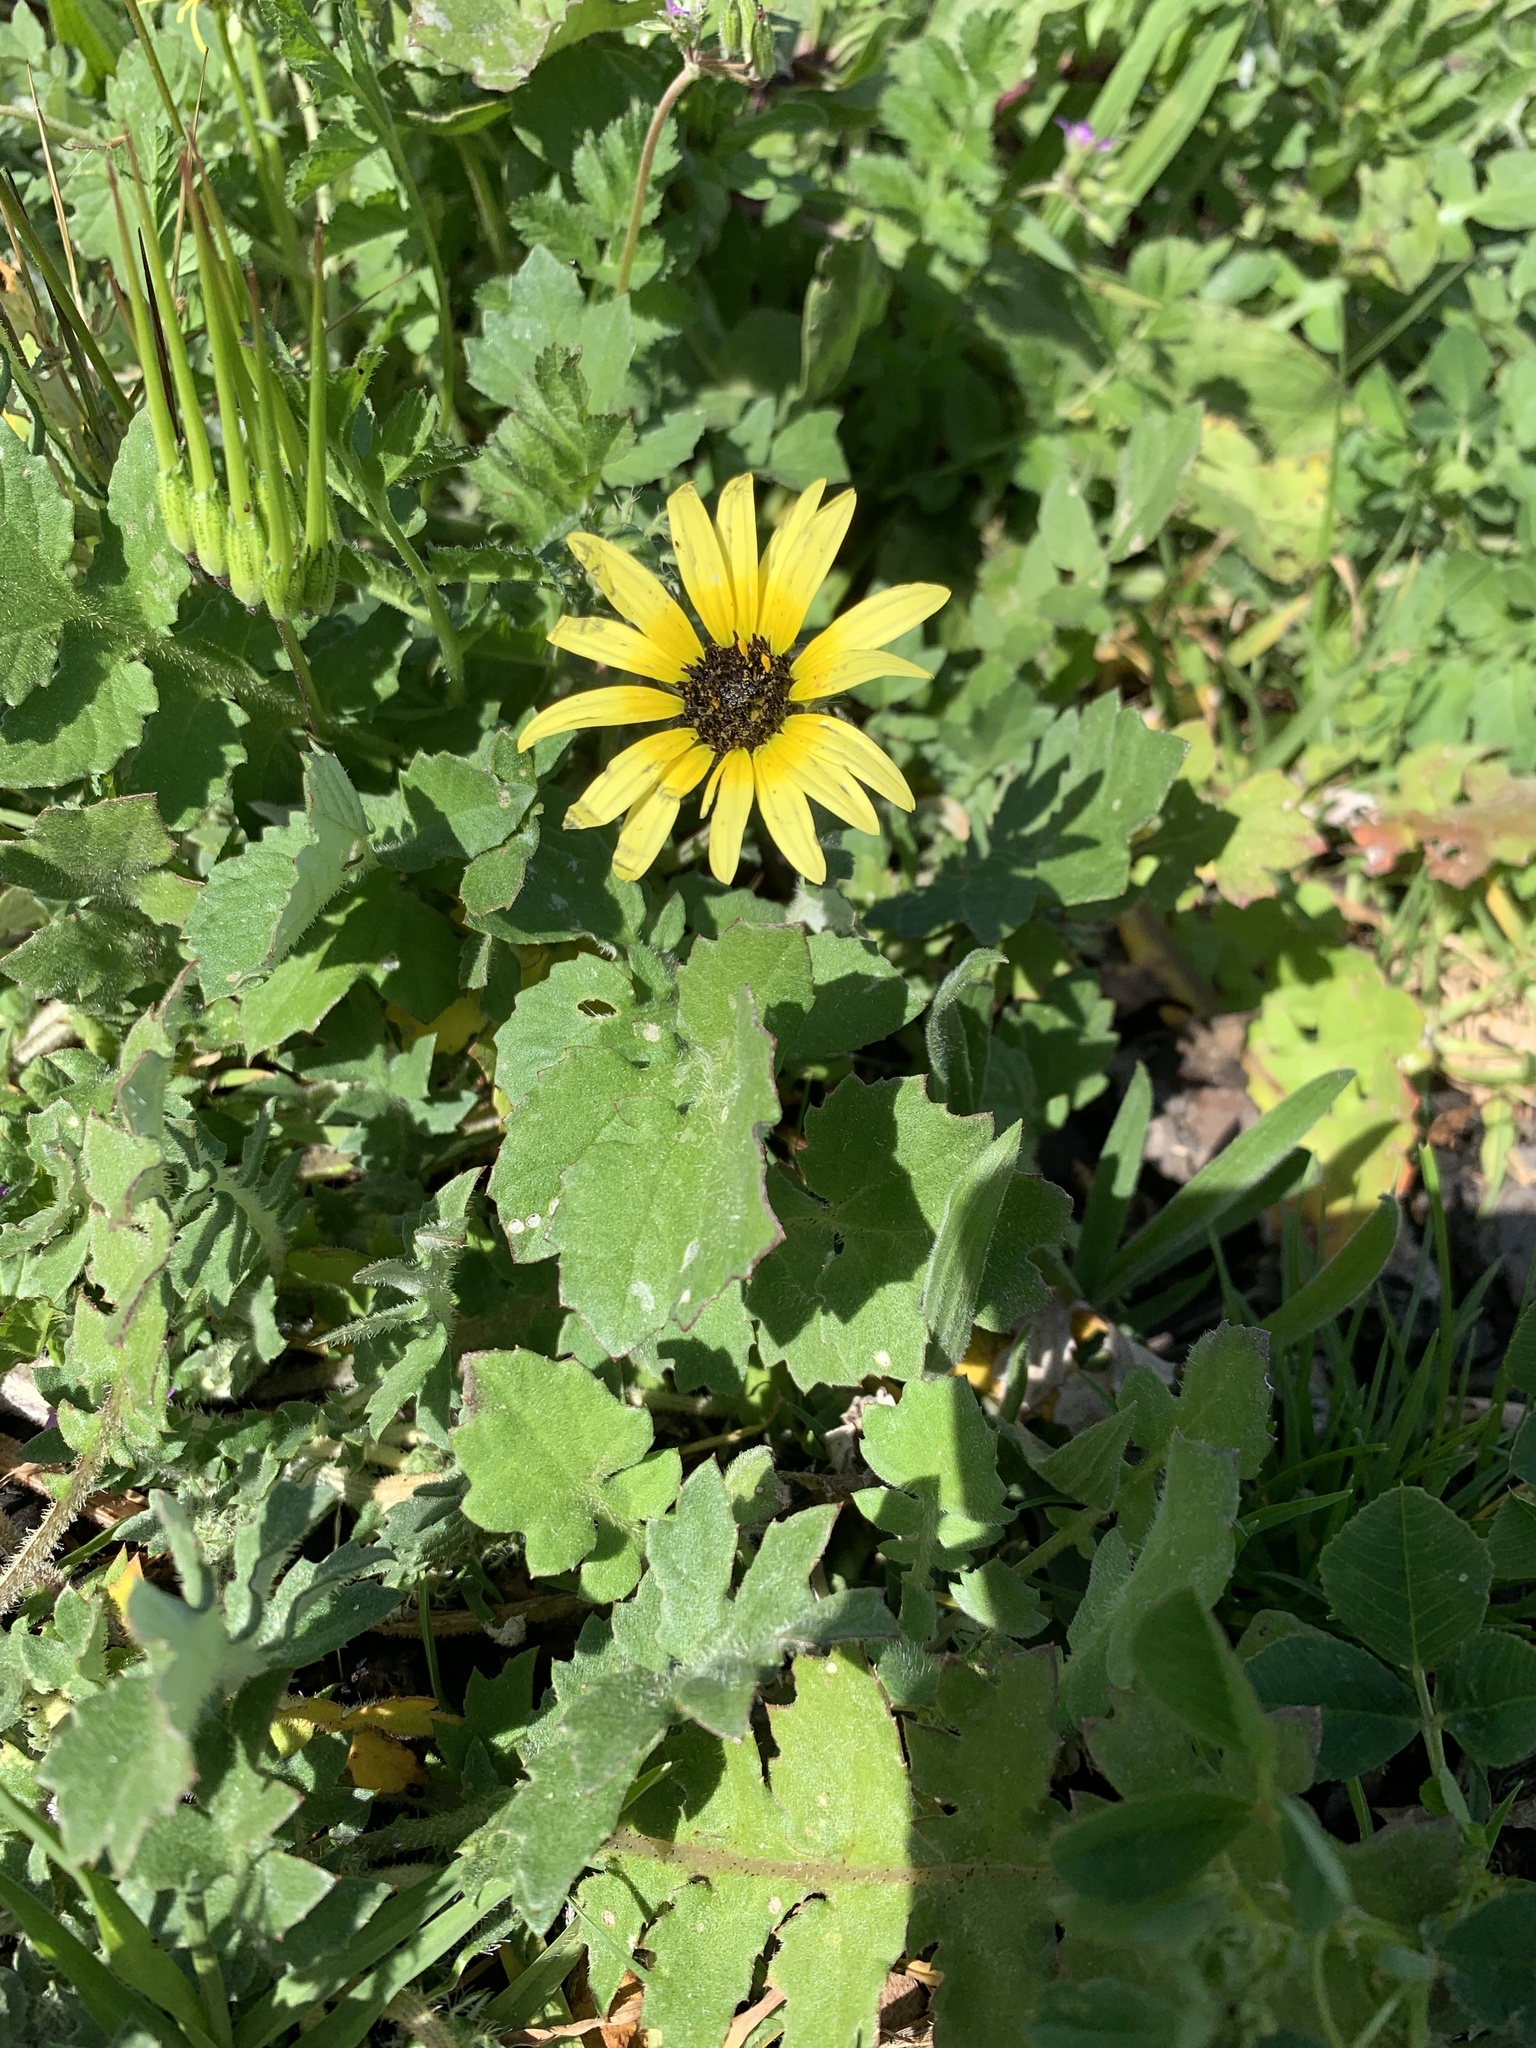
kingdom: Plantae
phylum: Tracheophyta
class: Magnoliopsida
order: Asterales
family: Asteraceae
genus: Arctotheca
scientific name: Arctotheca calendula
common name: Capeweed
